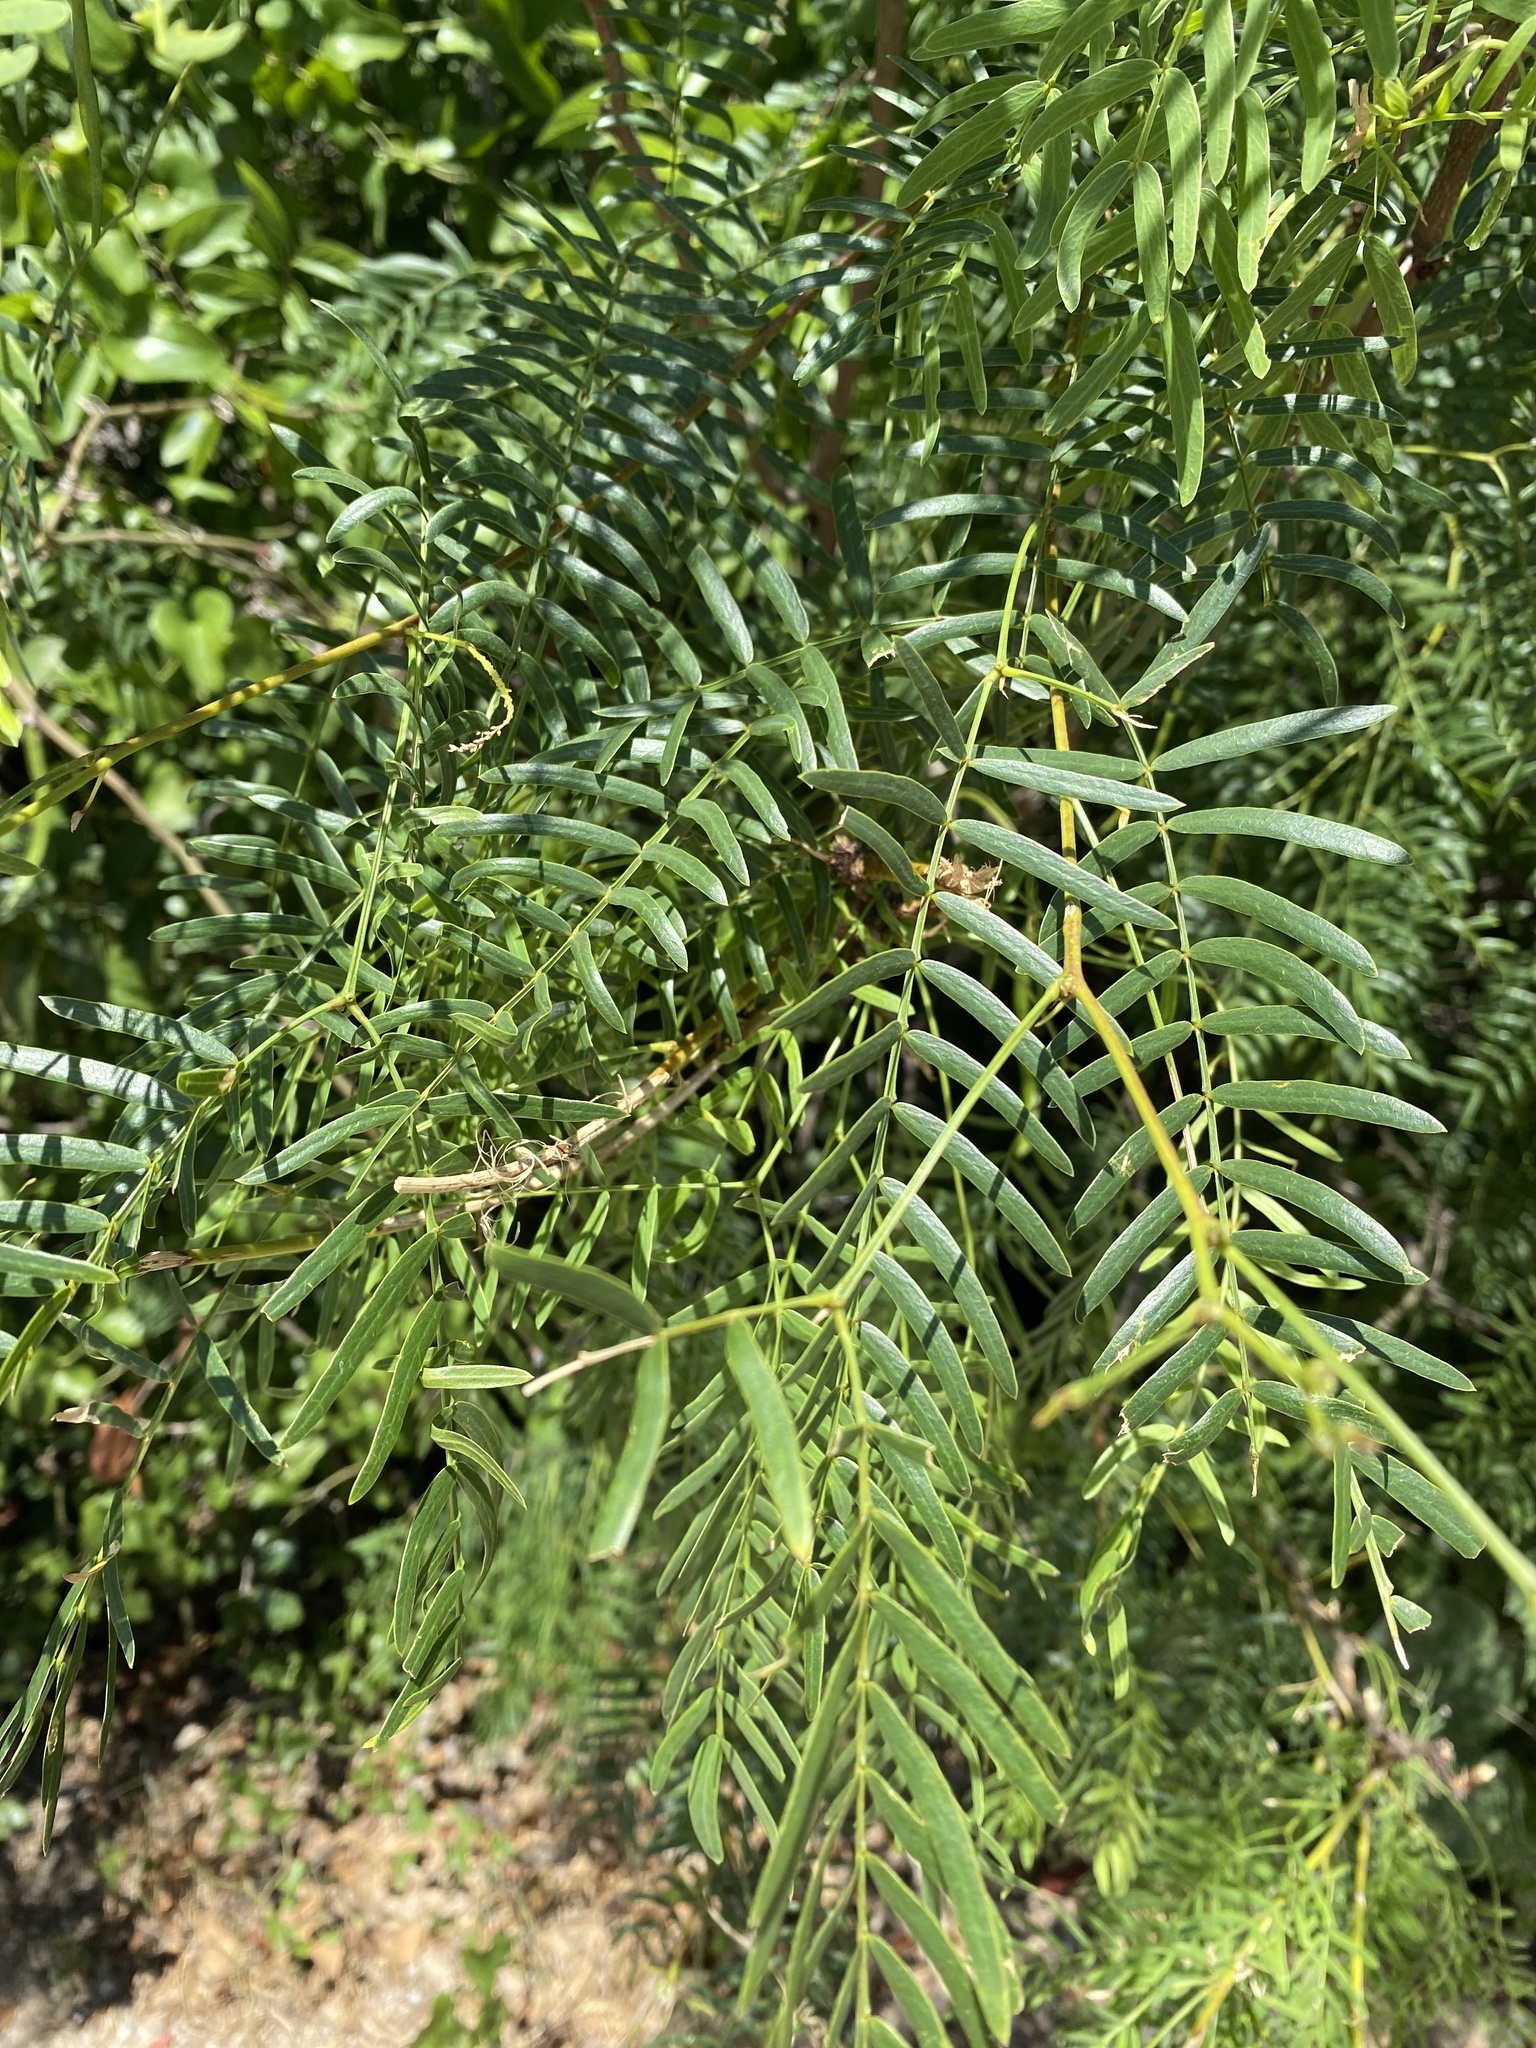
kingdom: Plantae
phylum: Tracheophyta
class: Magnoliopsida
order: Fabales
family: Fabaceae
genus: Prosopis
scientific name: Prosopis glandulosa
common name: Honey mesquite
